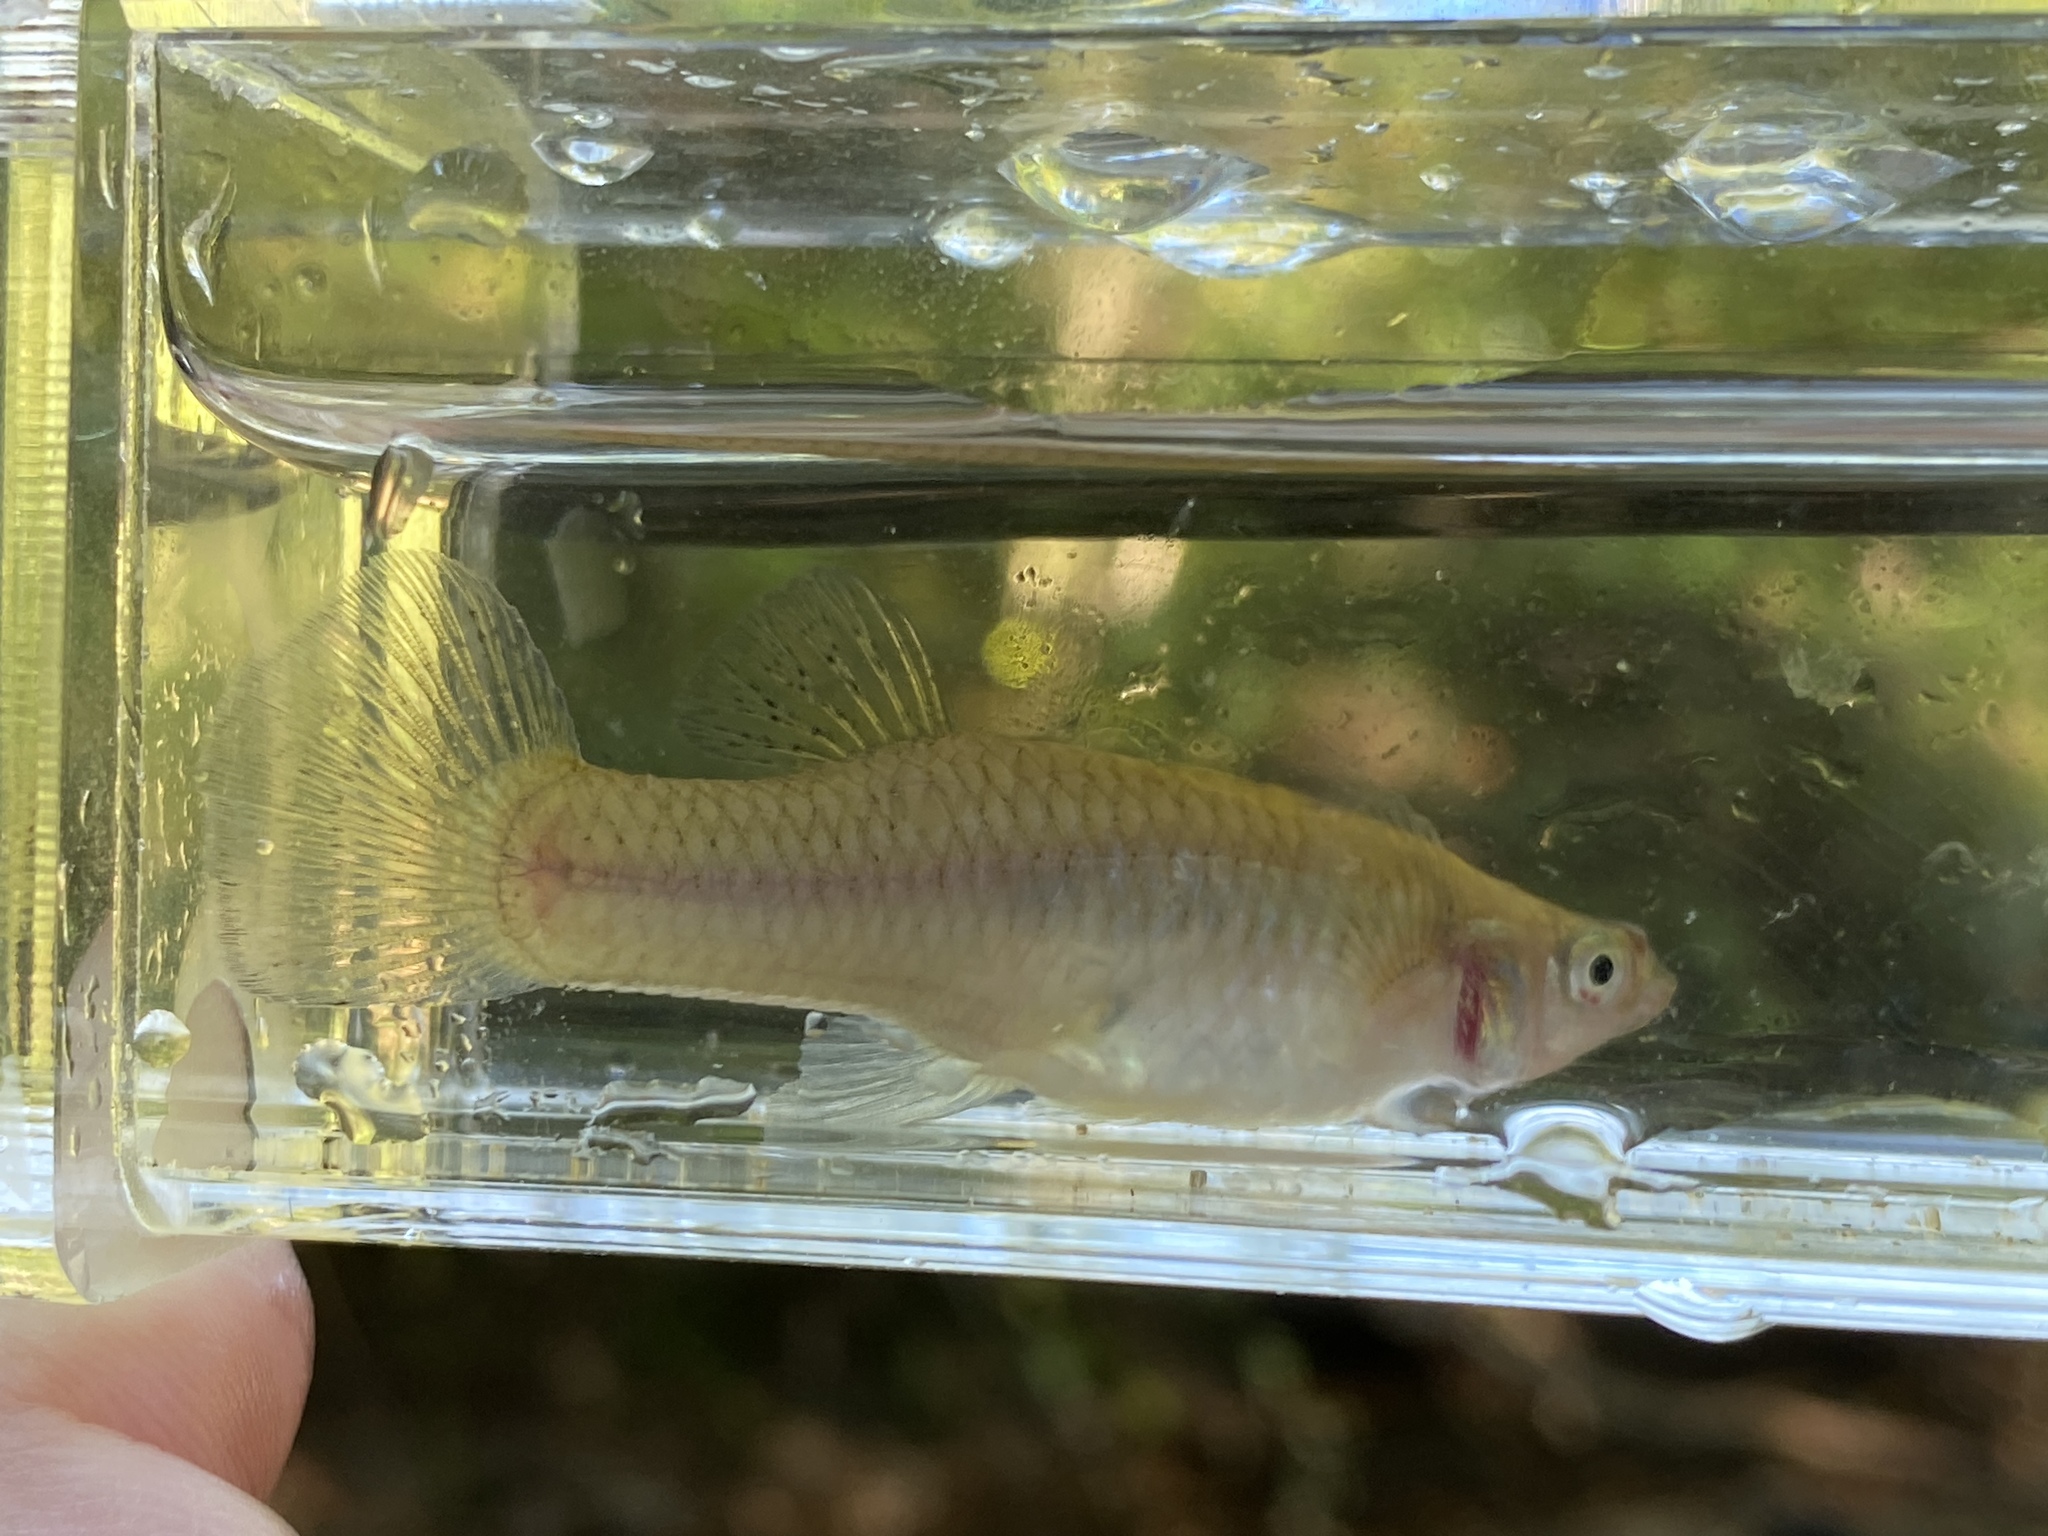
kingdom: Animalia
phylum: Chordata
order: Cyprinodontiformes
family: Poeciliidae
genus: Gambusia
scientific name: Gambusia holbrooki
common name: Eastern mosquitofish
